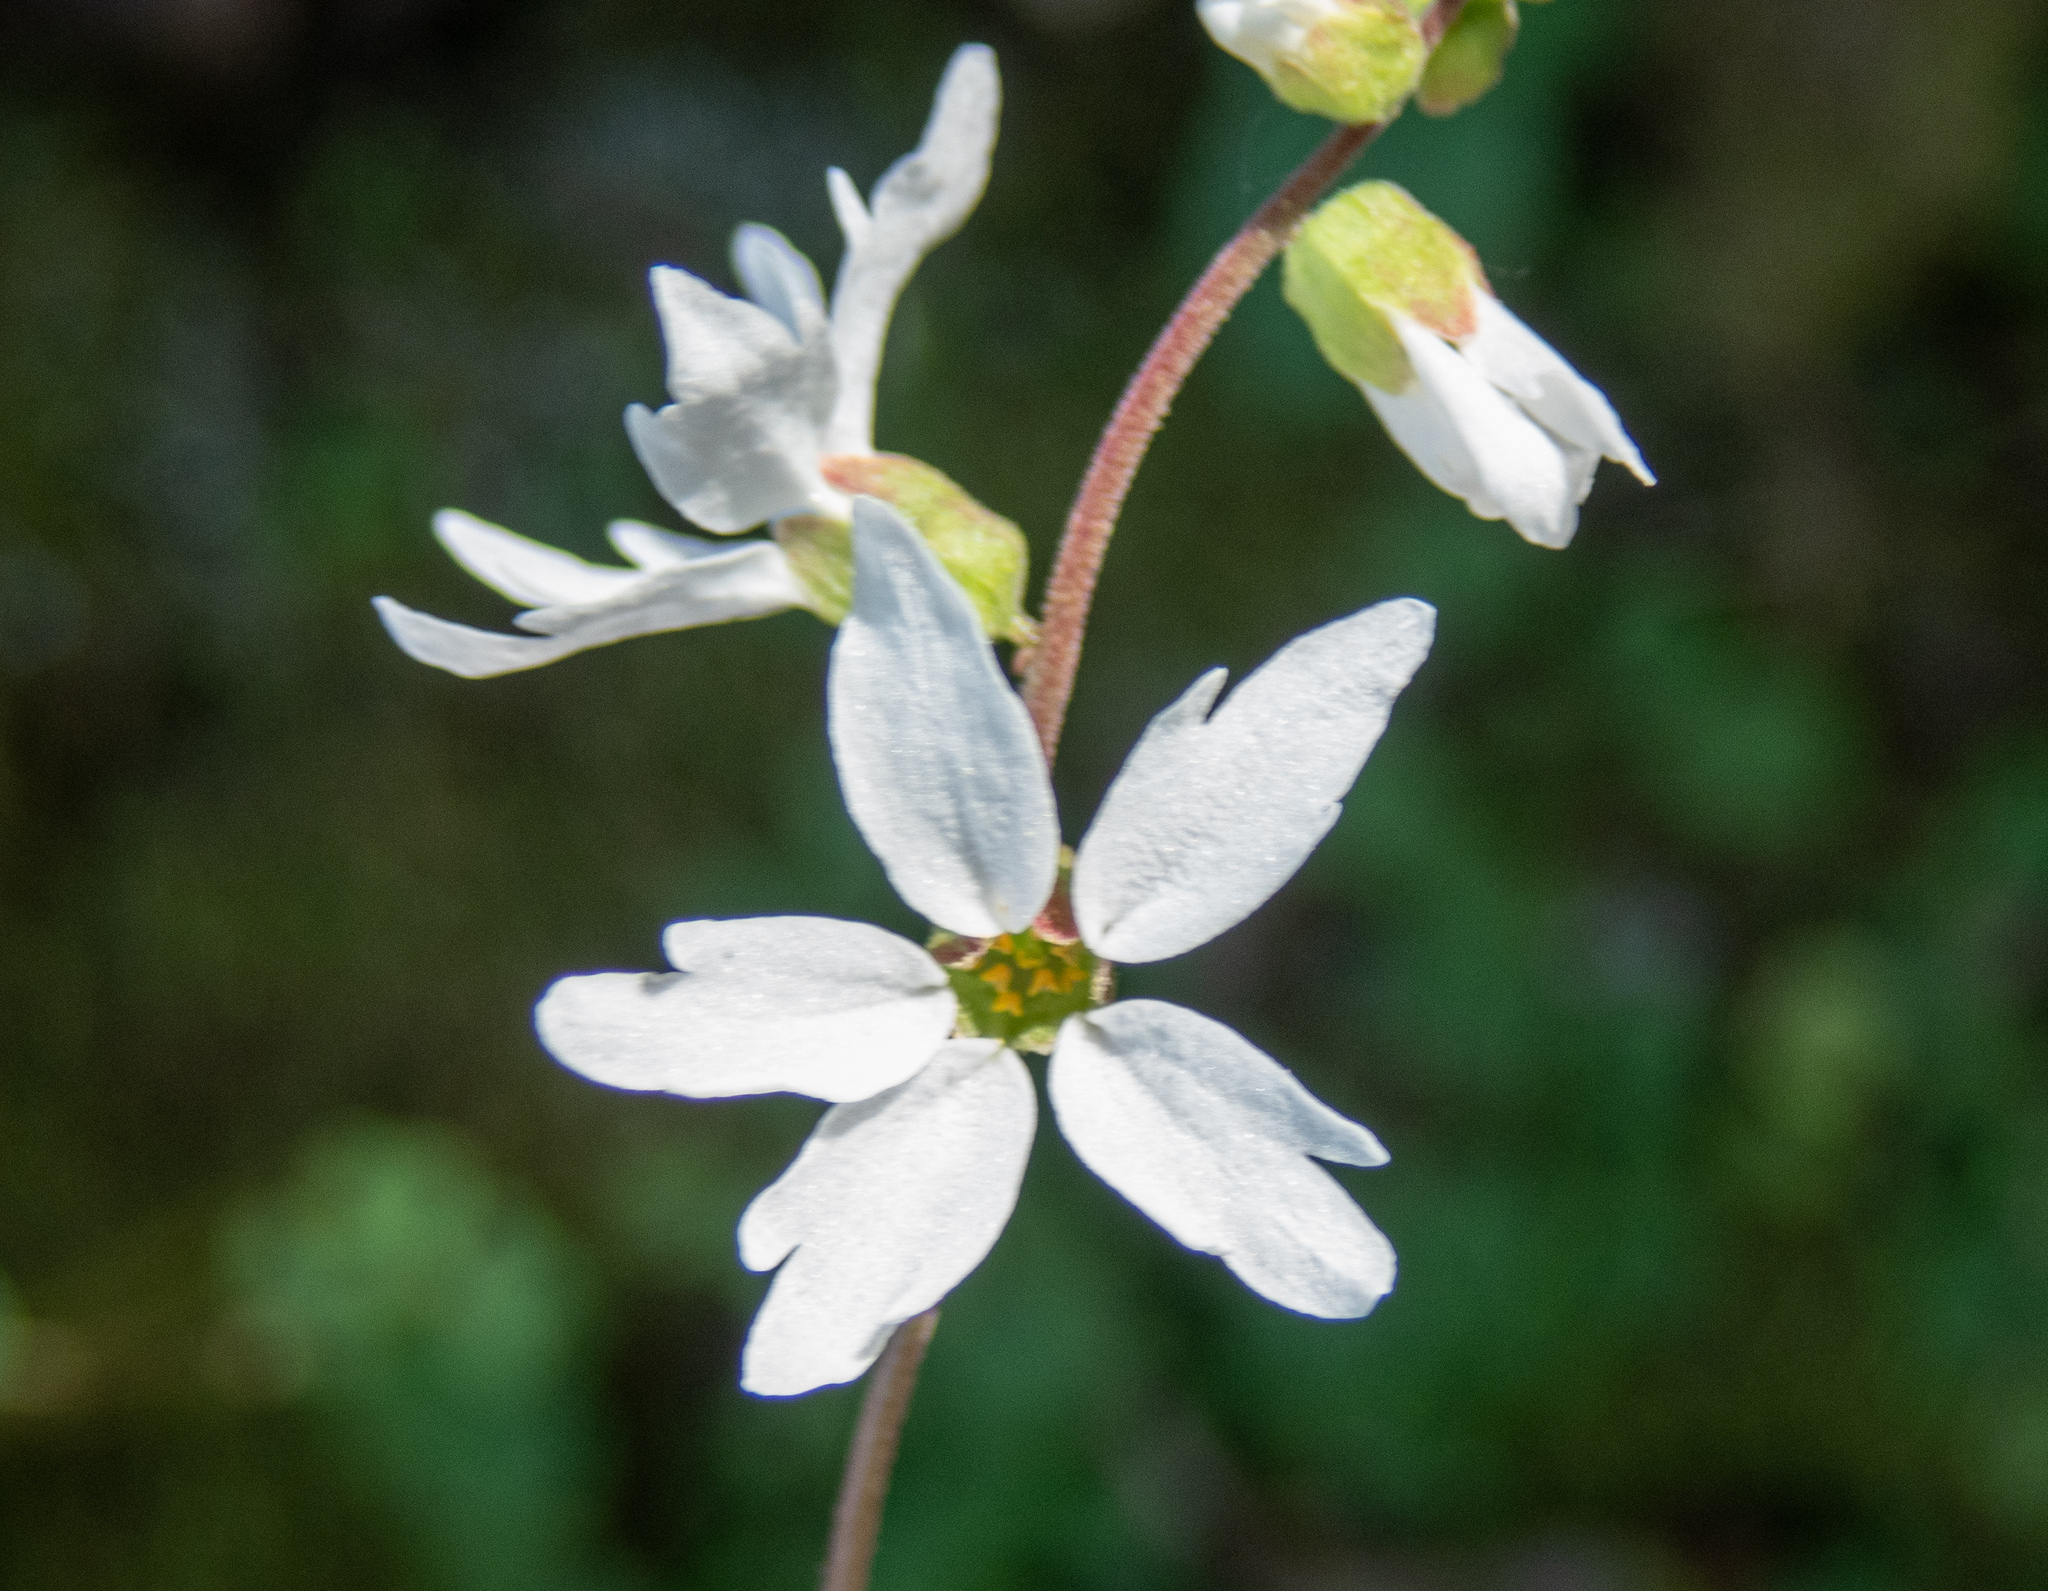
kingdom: Plantae
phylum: Tracheophyta
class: Magnoliopsida
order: Saxifragales
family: Saxifragaceae
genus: Lithophragma
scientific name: Lithophragma heterophyllum
